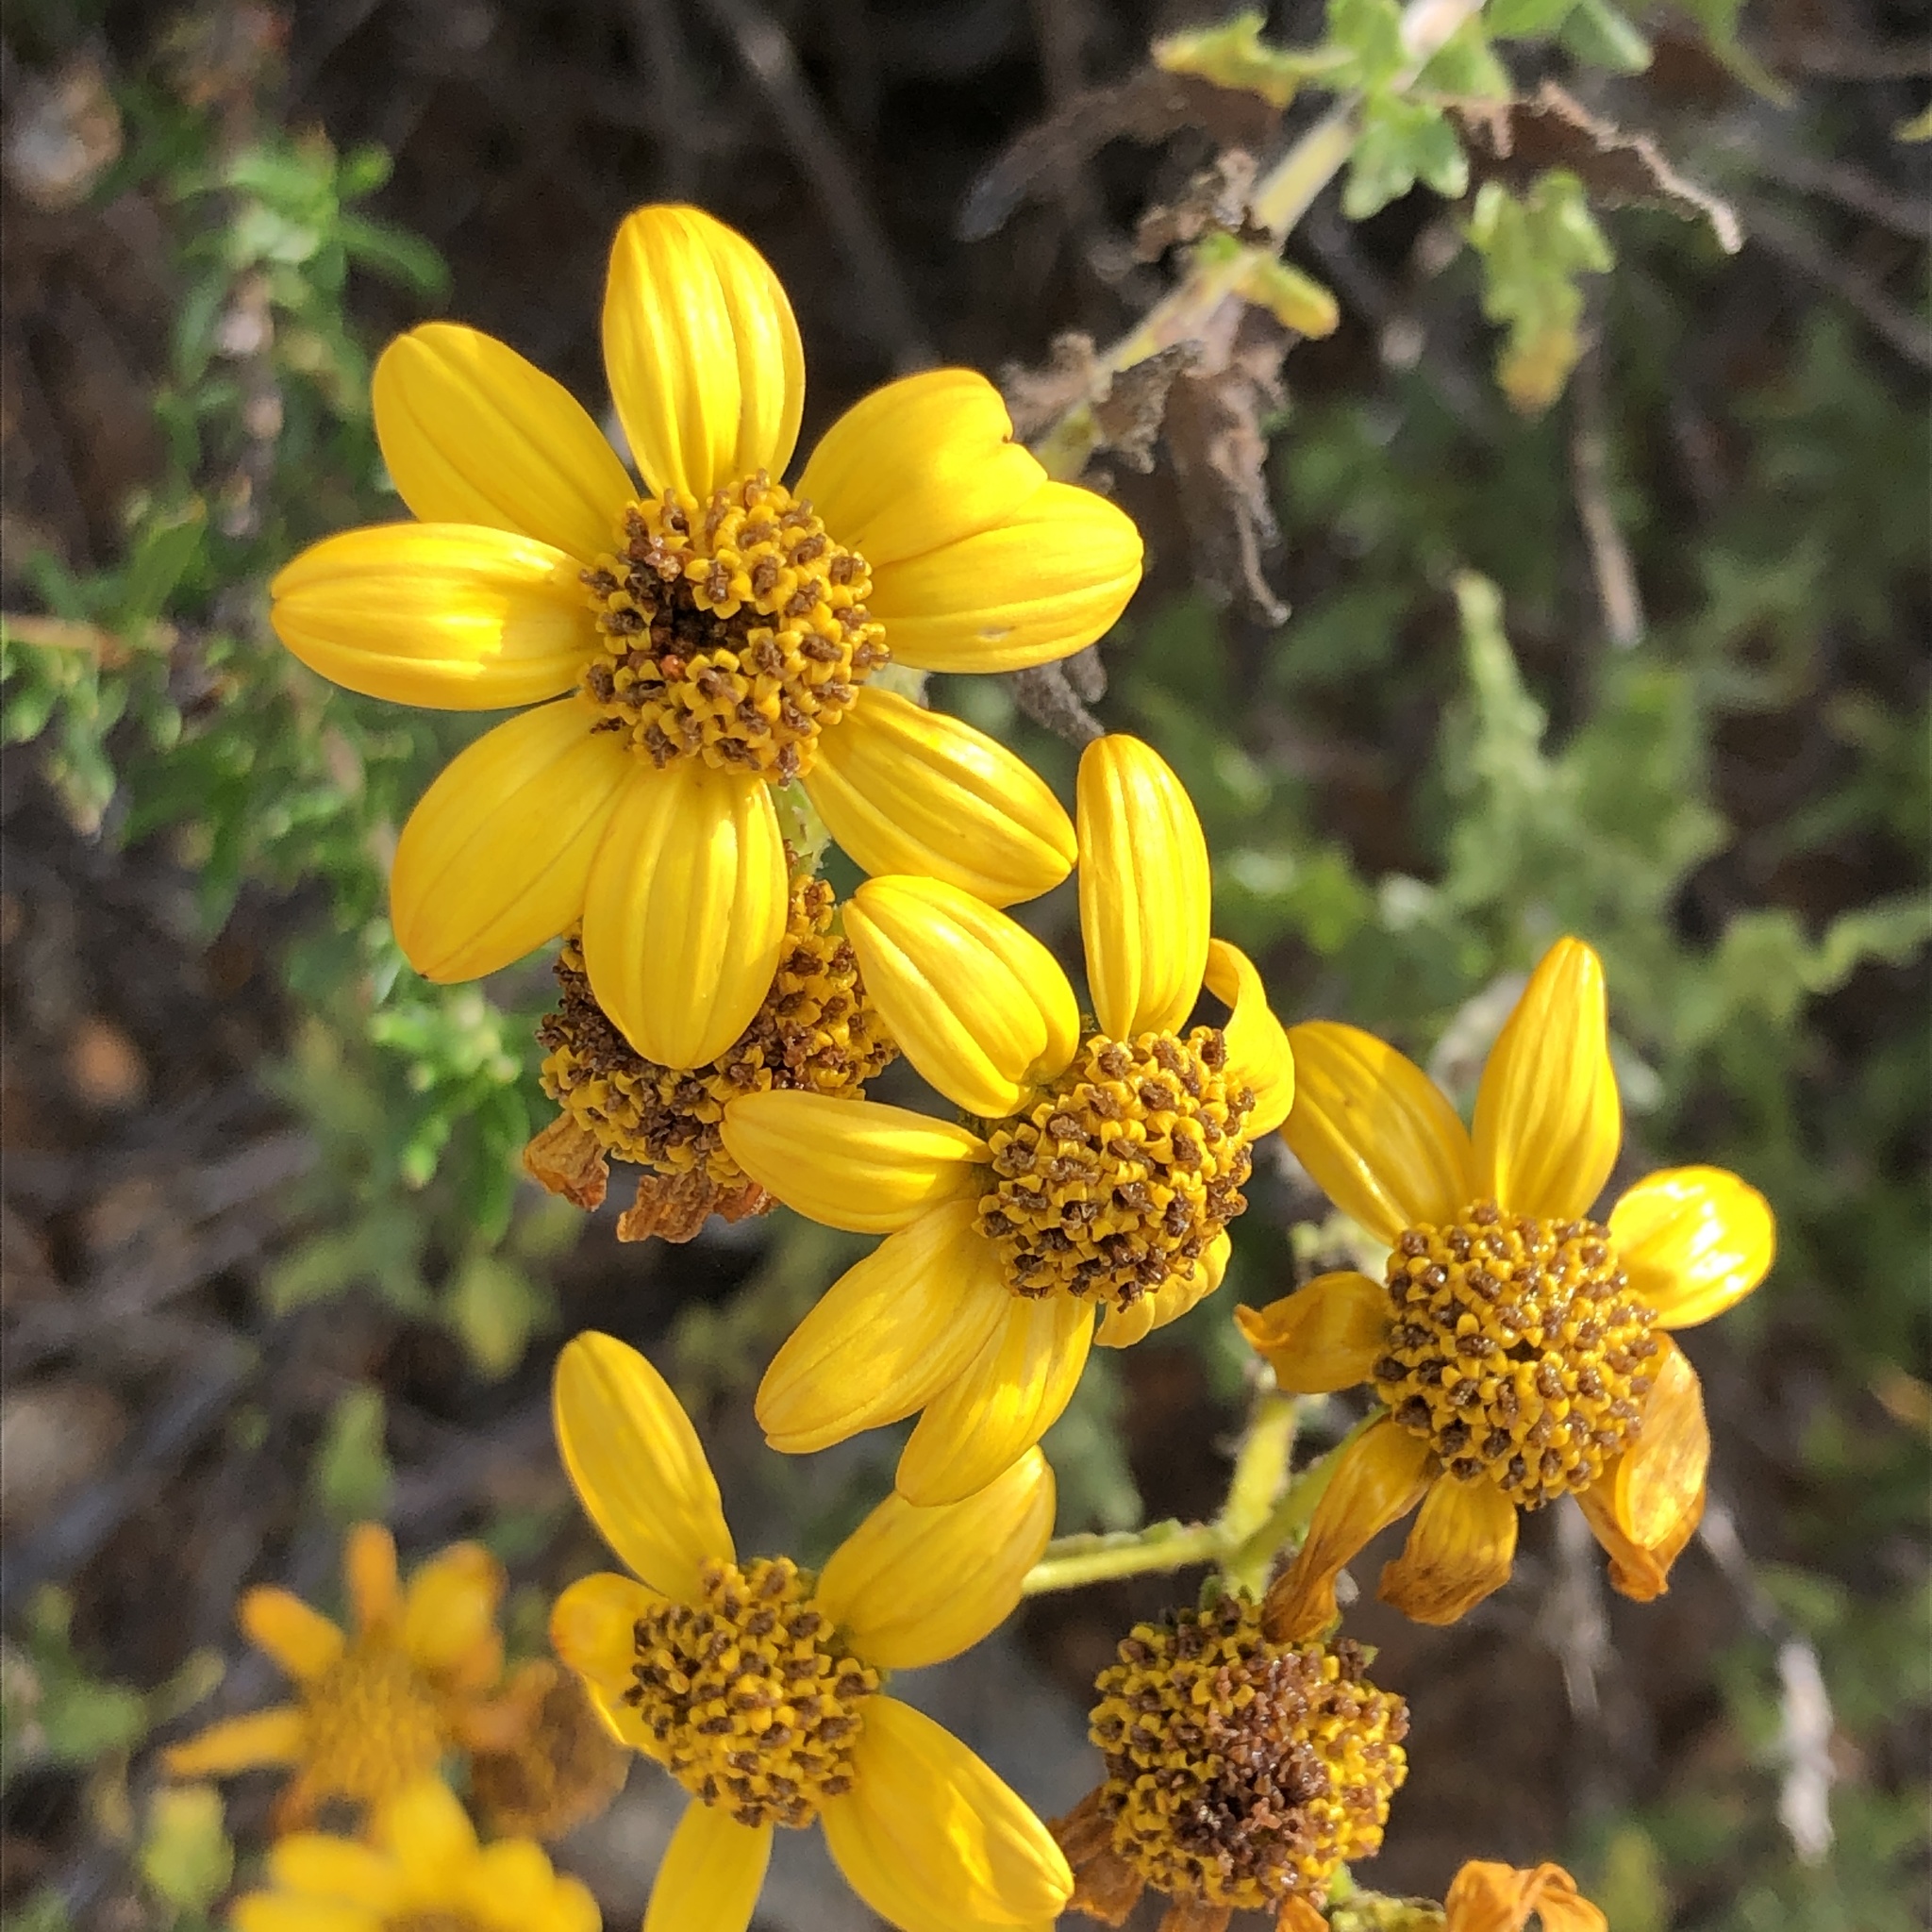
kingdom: Plantae
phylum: Tracheophyta
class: Magnoliopsida
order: Asterales
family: Asteraceae
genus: Bahiopsis
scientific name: Bahiopsis laciniata
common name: San diego county viguiera
